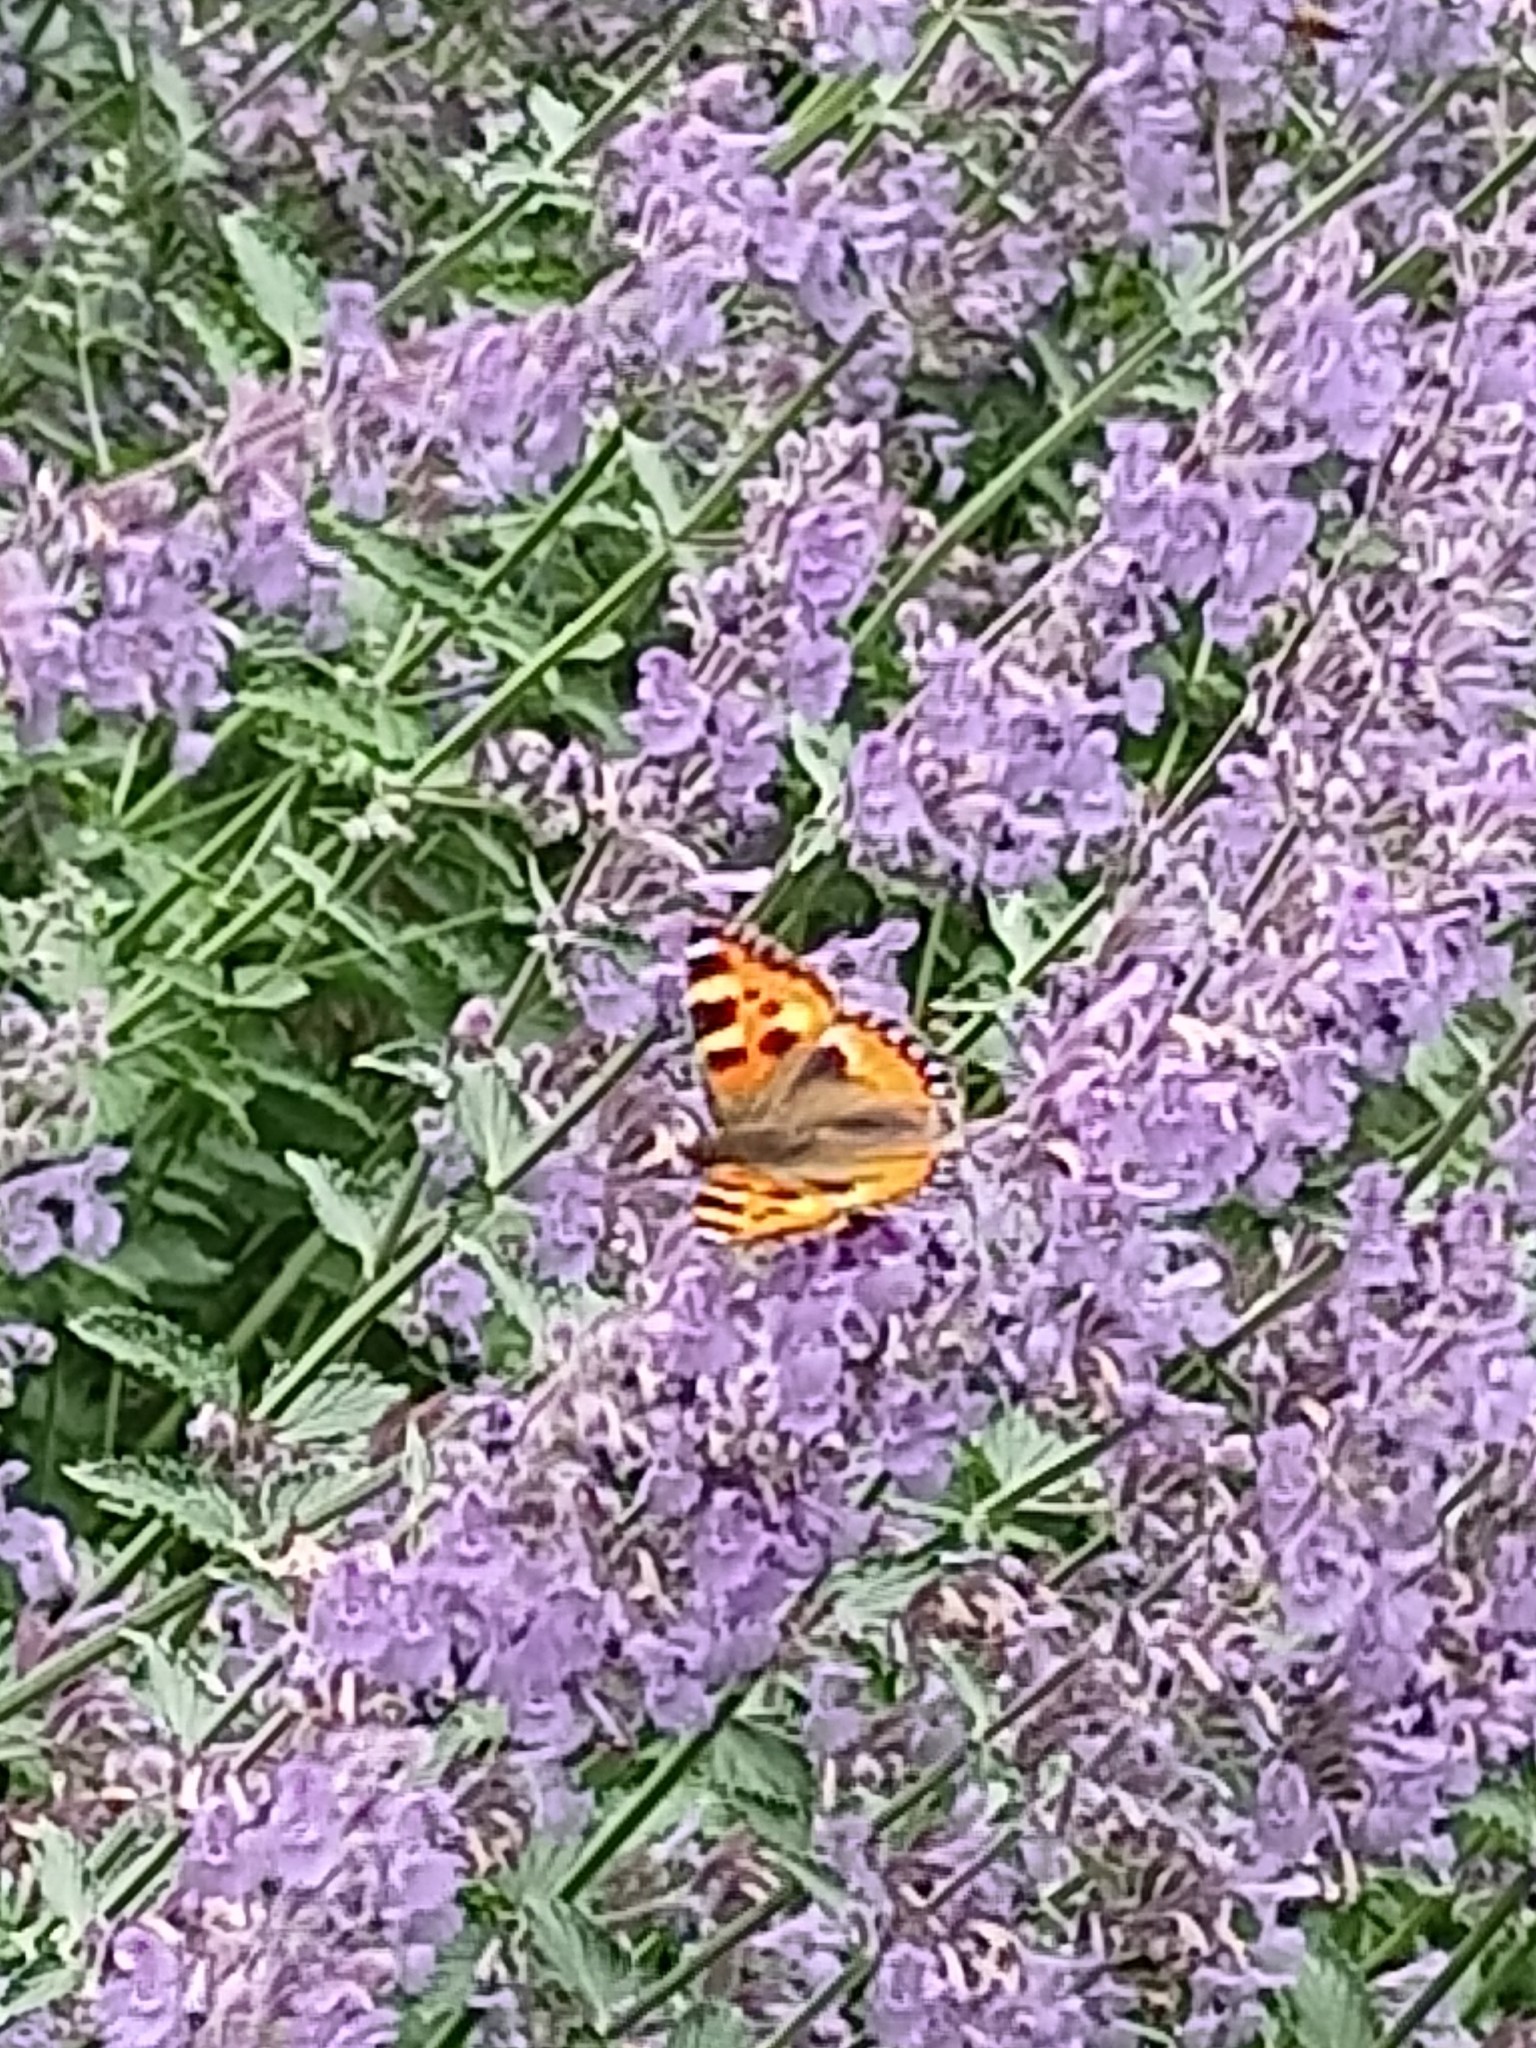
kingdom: Animalia
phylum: Arthropoda
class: Insecta
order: Lepidoptera
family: Nymphalidae
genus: Aglais
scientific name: Aglais urticae
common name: Small tortoiseshell
